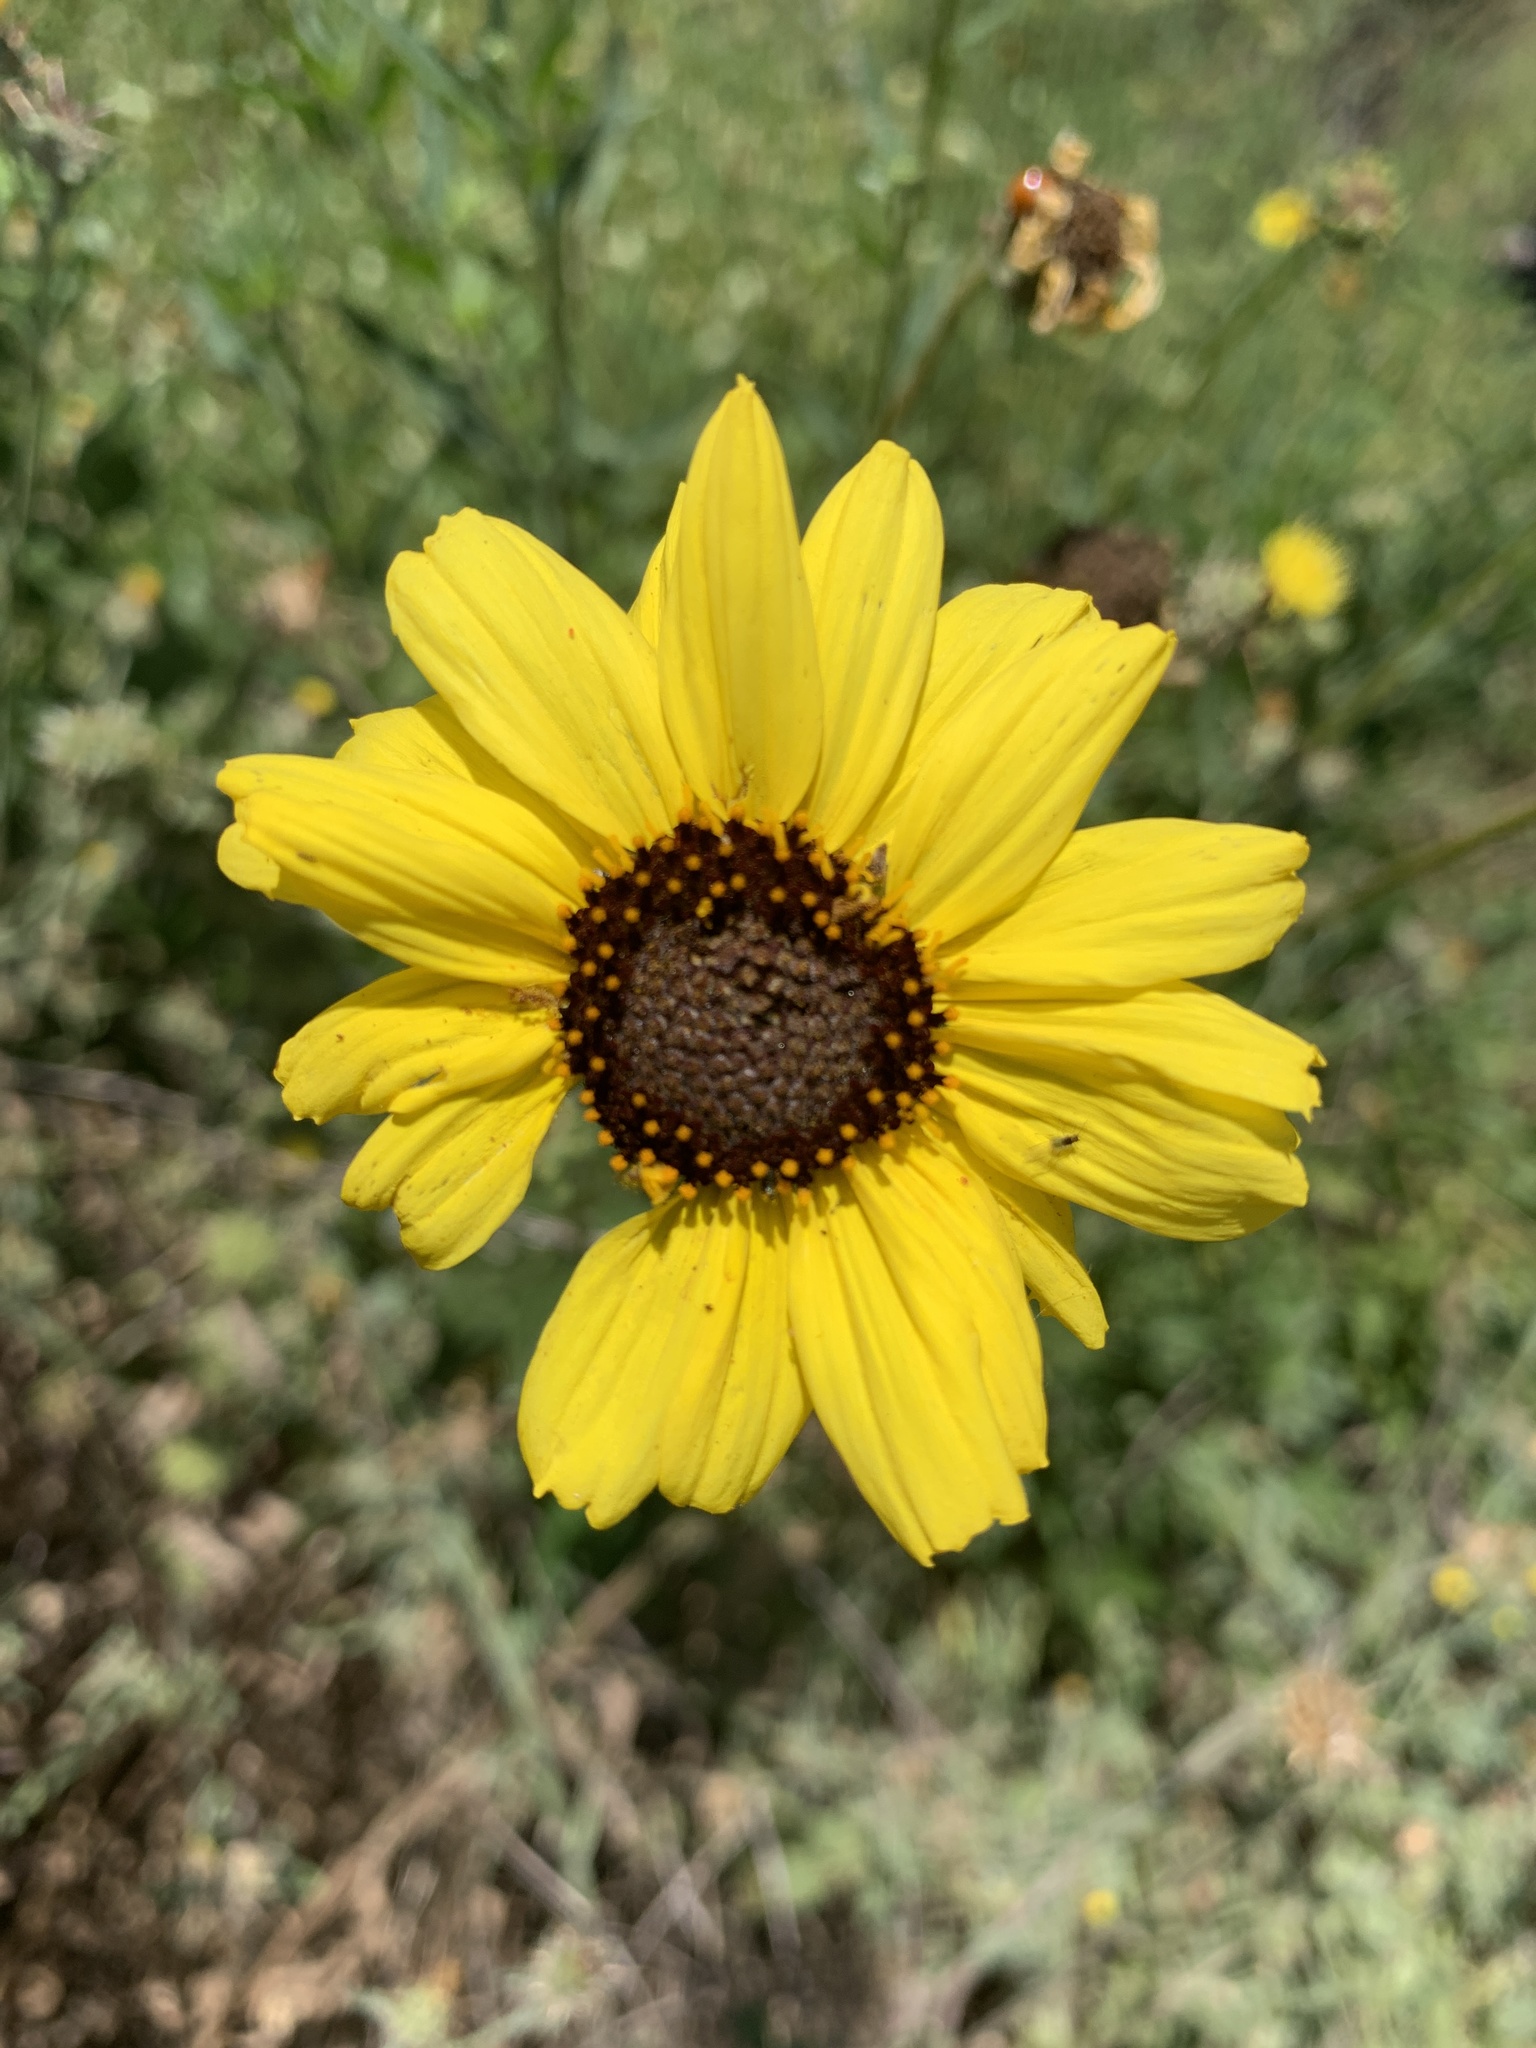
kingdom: Plantae
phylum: Tracheophyta
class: Magnoliopsida
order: Asterales
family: Asteraceae
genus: Encelia
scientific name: Encelia californica
